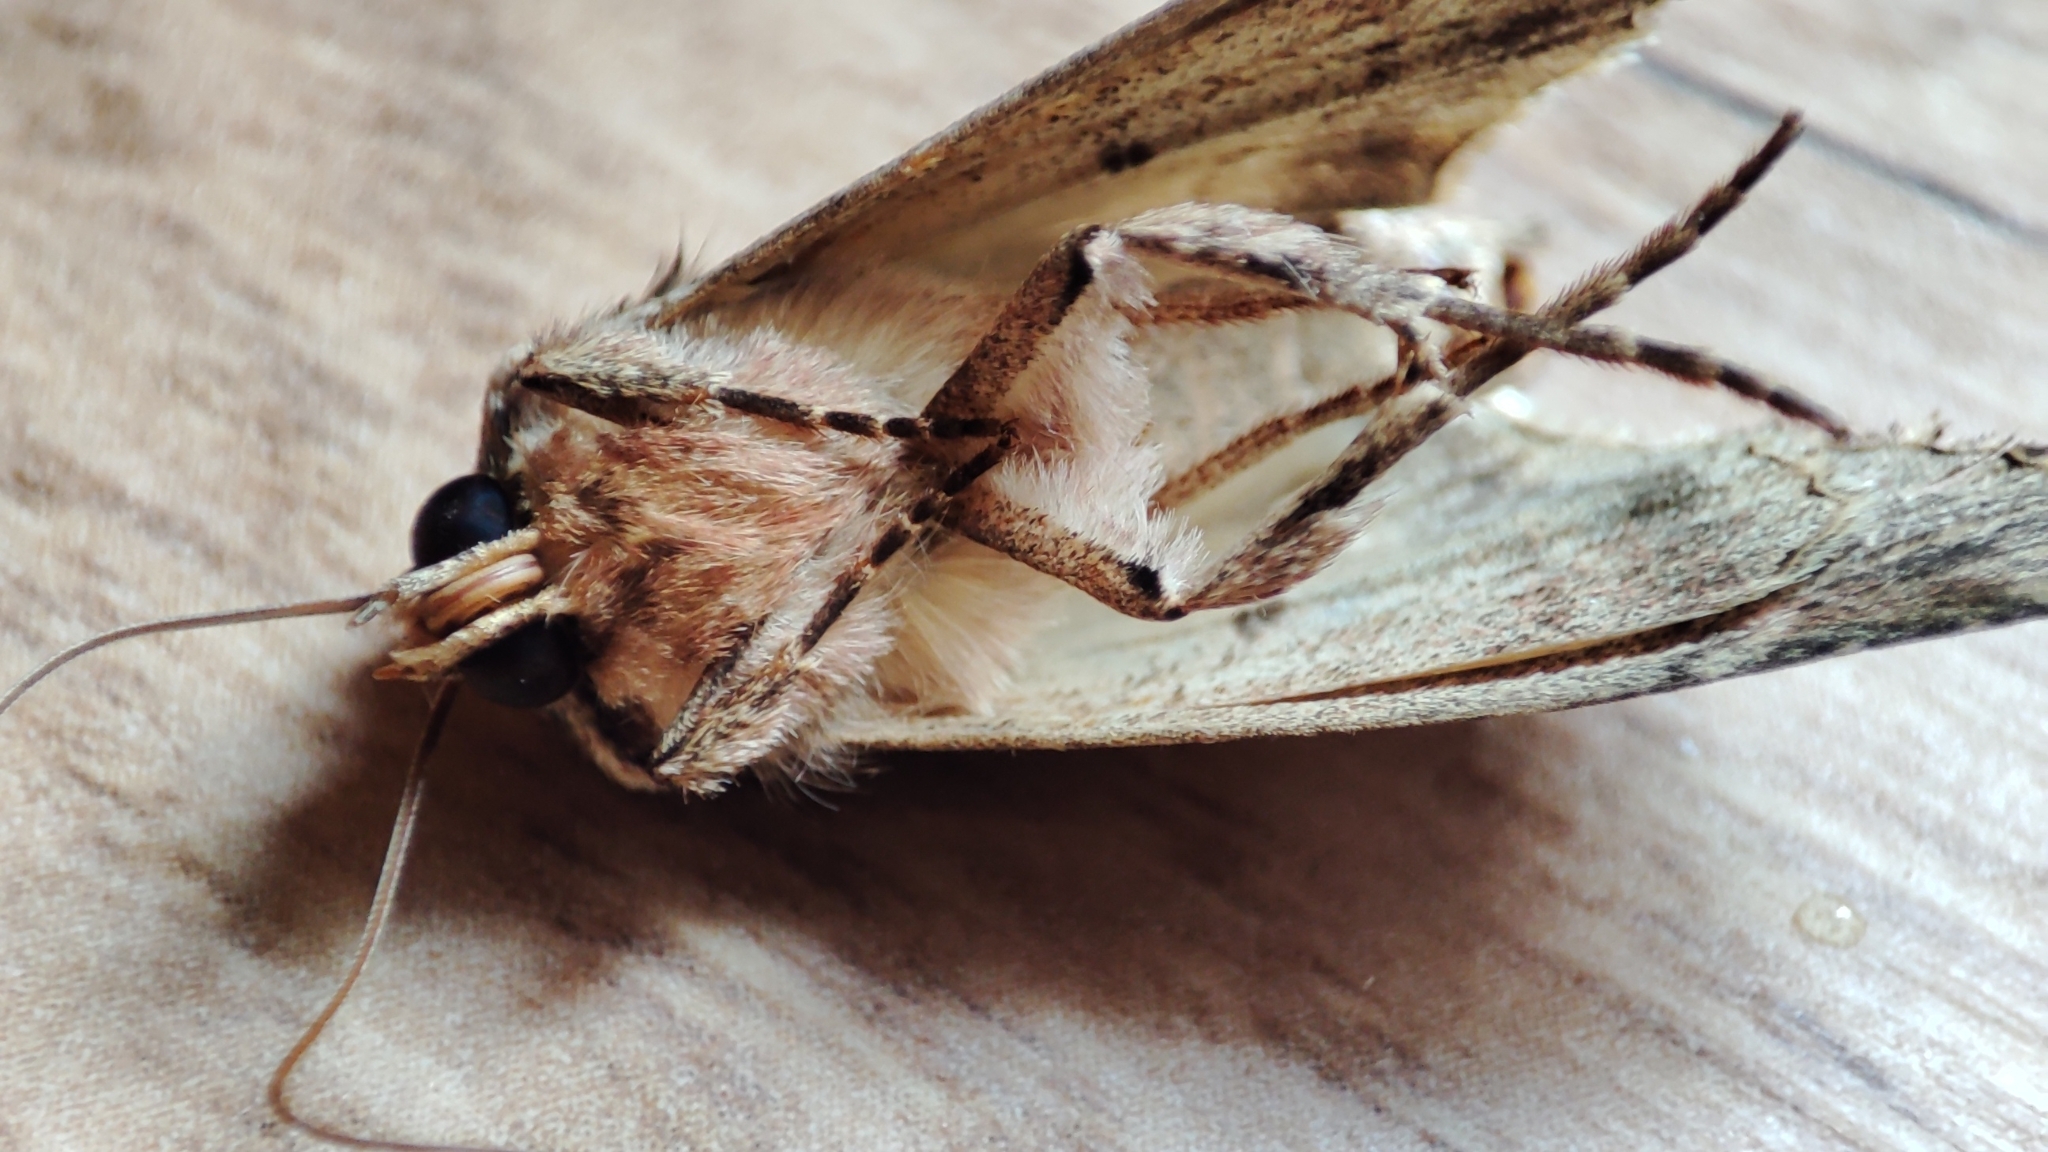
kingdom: Animalia
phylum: Arthropoda
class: Insecta
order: Lepidoptera
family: Noctuidae
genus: Apamea
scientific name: Apamea monoglypha
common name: Dark arches
